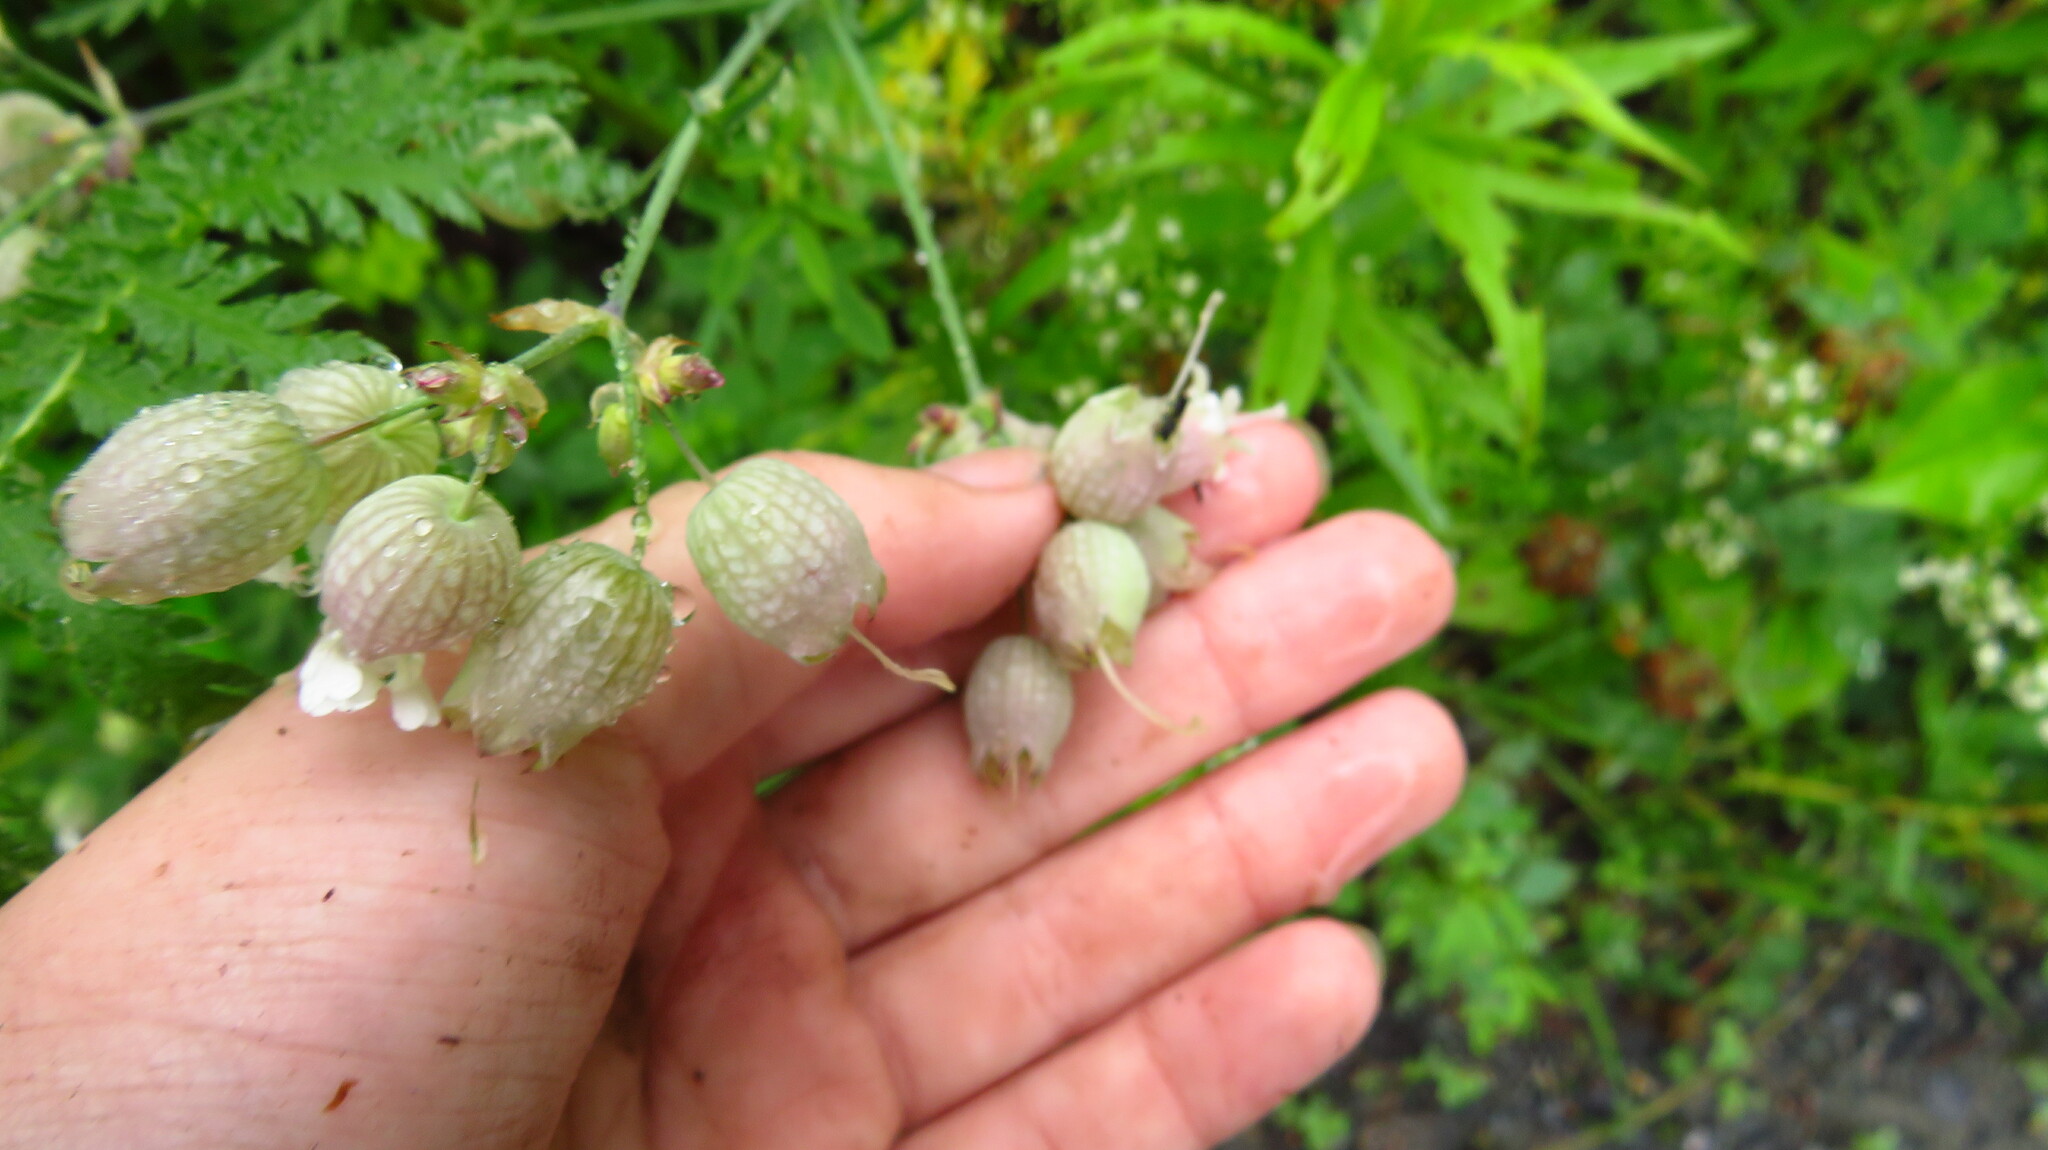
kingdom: Plantae
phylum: Tracheophyta
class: Magnoliopsida
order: Caryophyllales
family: Caryophyllaceae
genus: Silene
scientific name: Silene vulgaris
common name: Bladder campion
